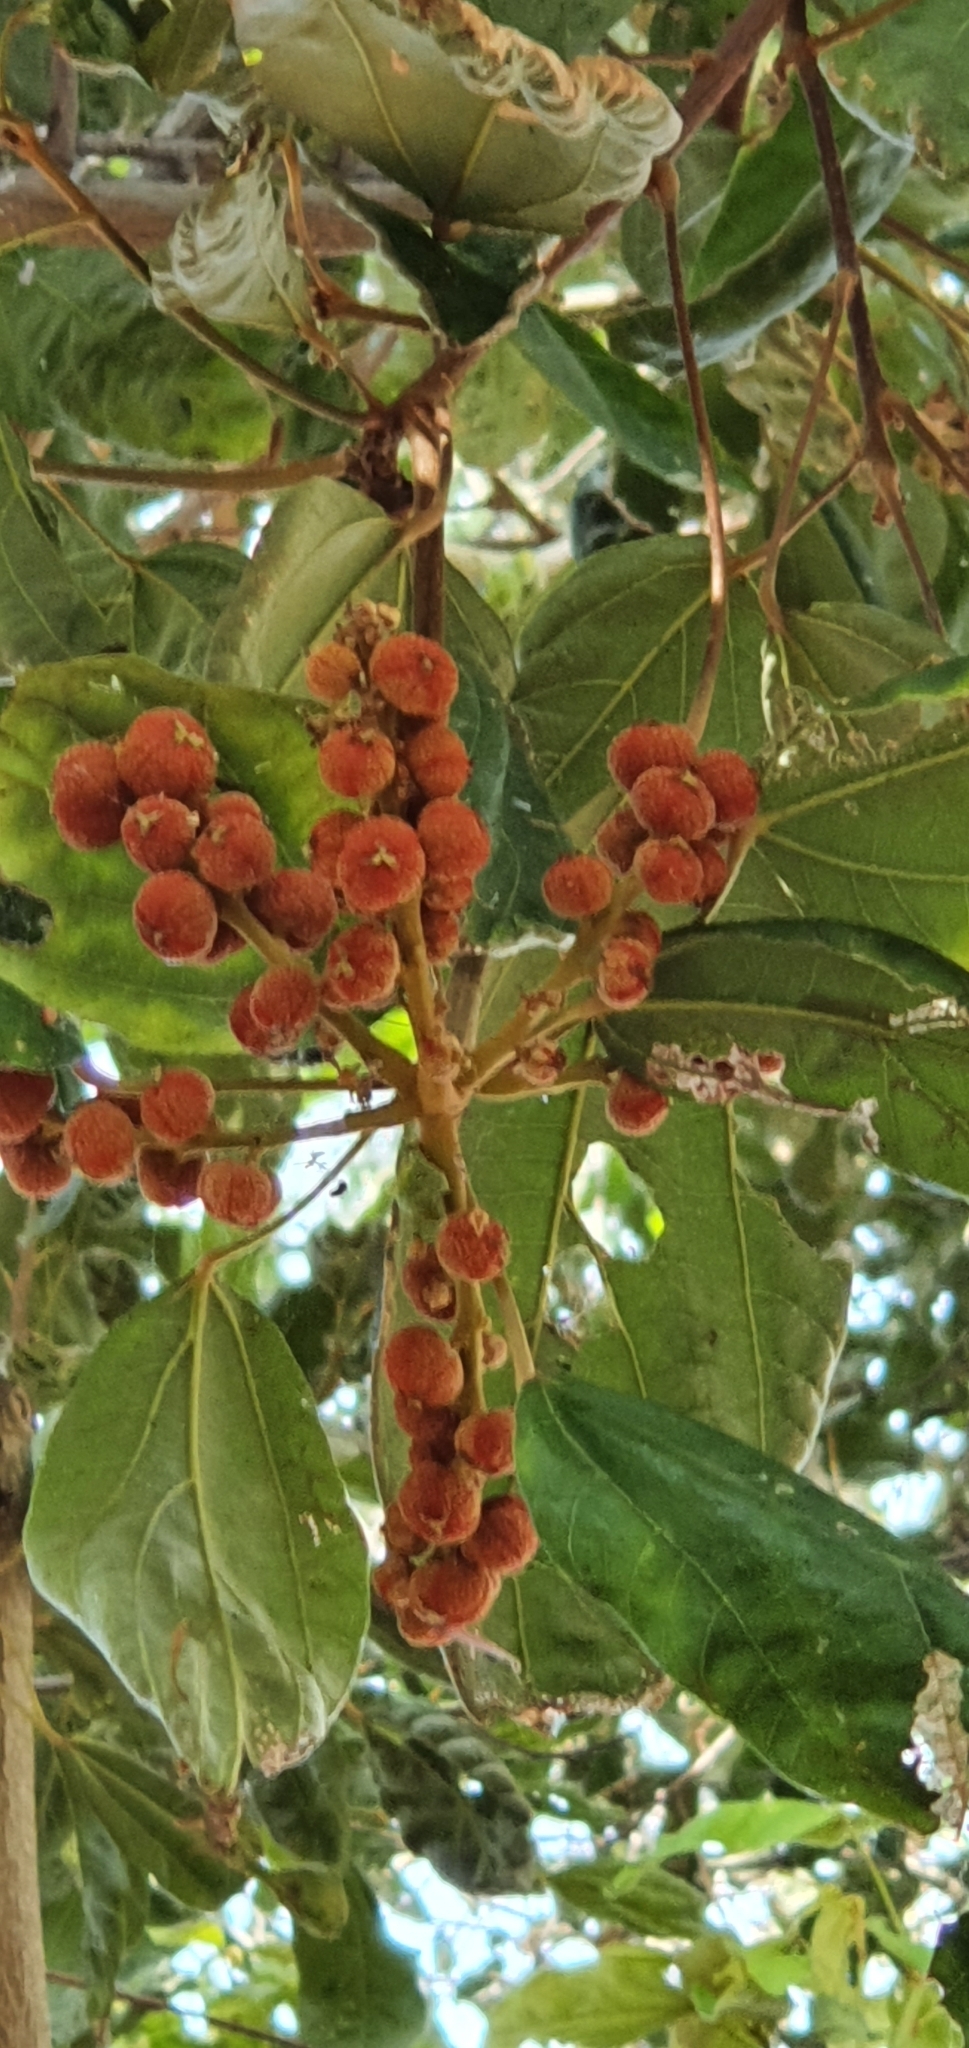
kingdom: Plantae
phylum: Tracheophyta
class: Magnoliopsida
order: Malpighiales
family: Euphorbiaceae
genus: Mallotus
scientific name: Mallotus philippensis
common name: Kamala tree
